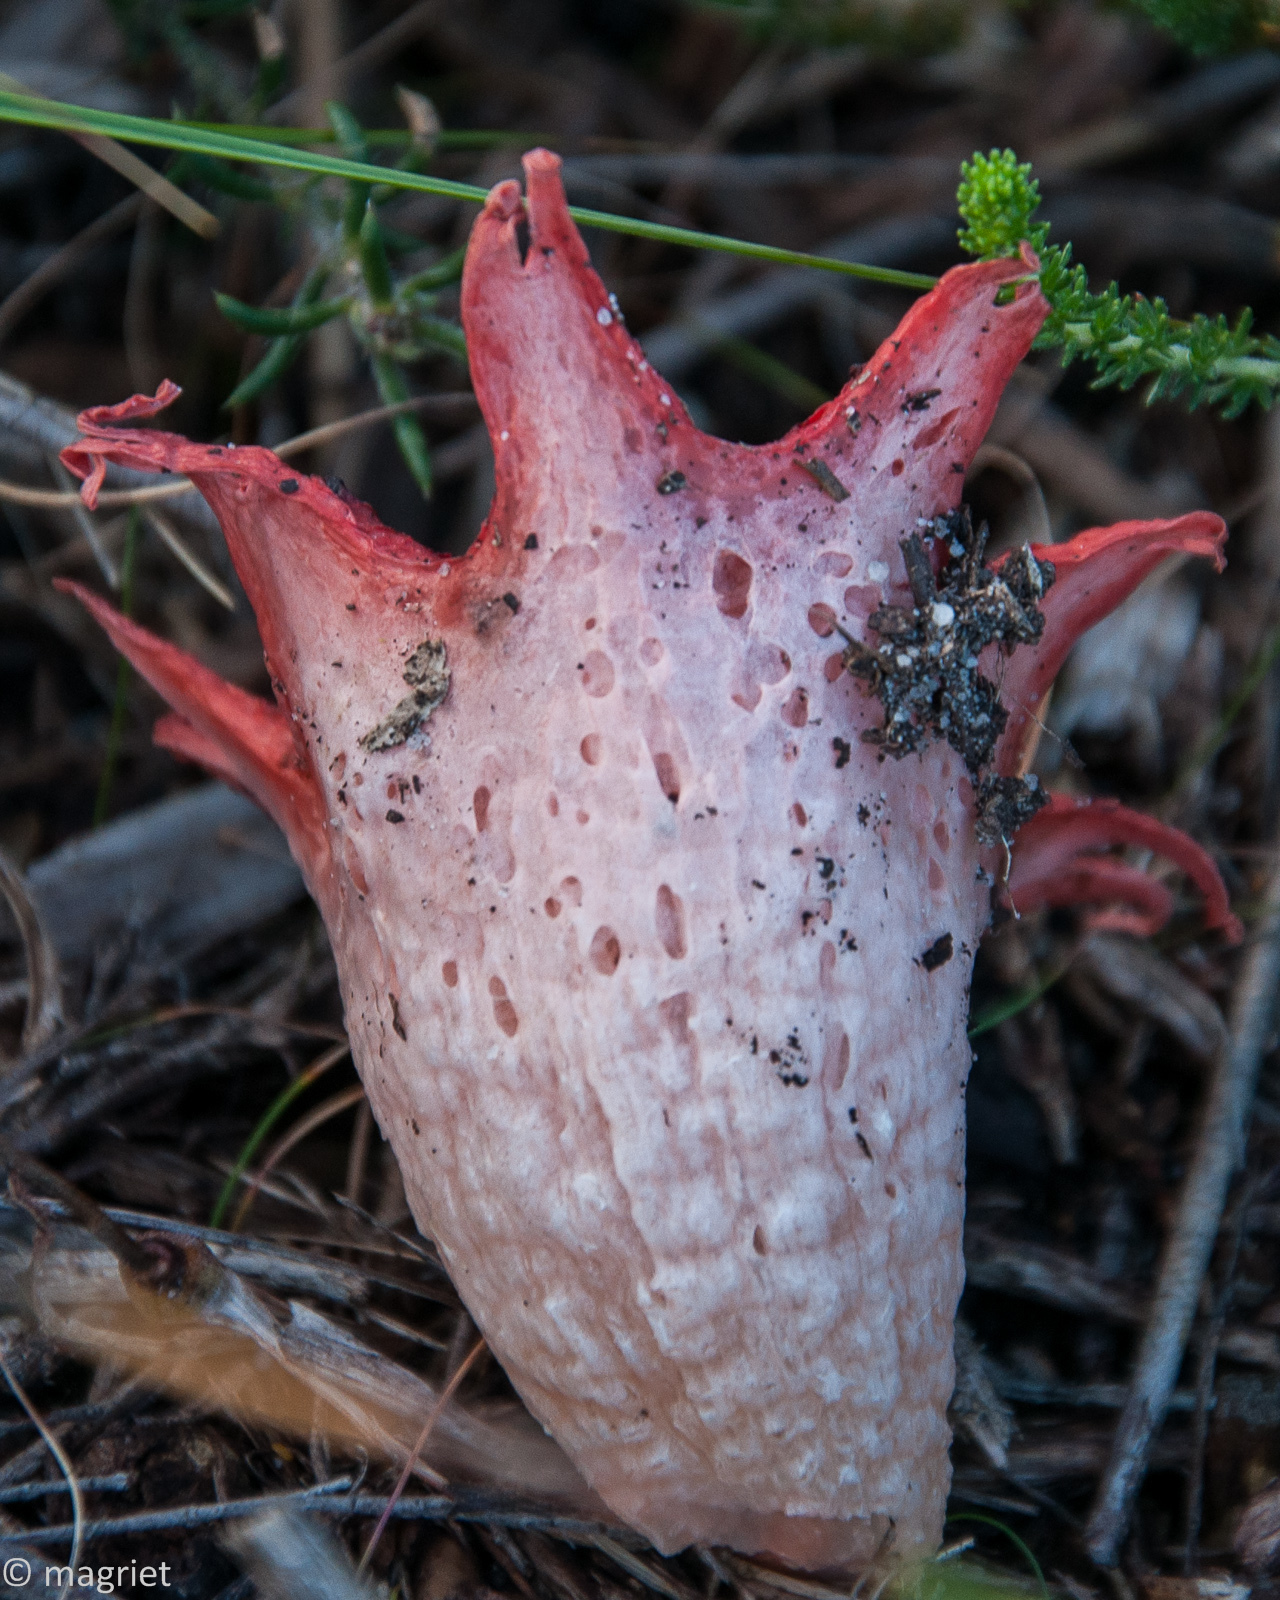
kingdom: Fungi
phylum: Basidiomycota
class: Agaricomycetes
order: Phallales
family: Phallaceae
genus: Aseroe
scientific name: Aseroe rubra
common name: Starfish fungus
